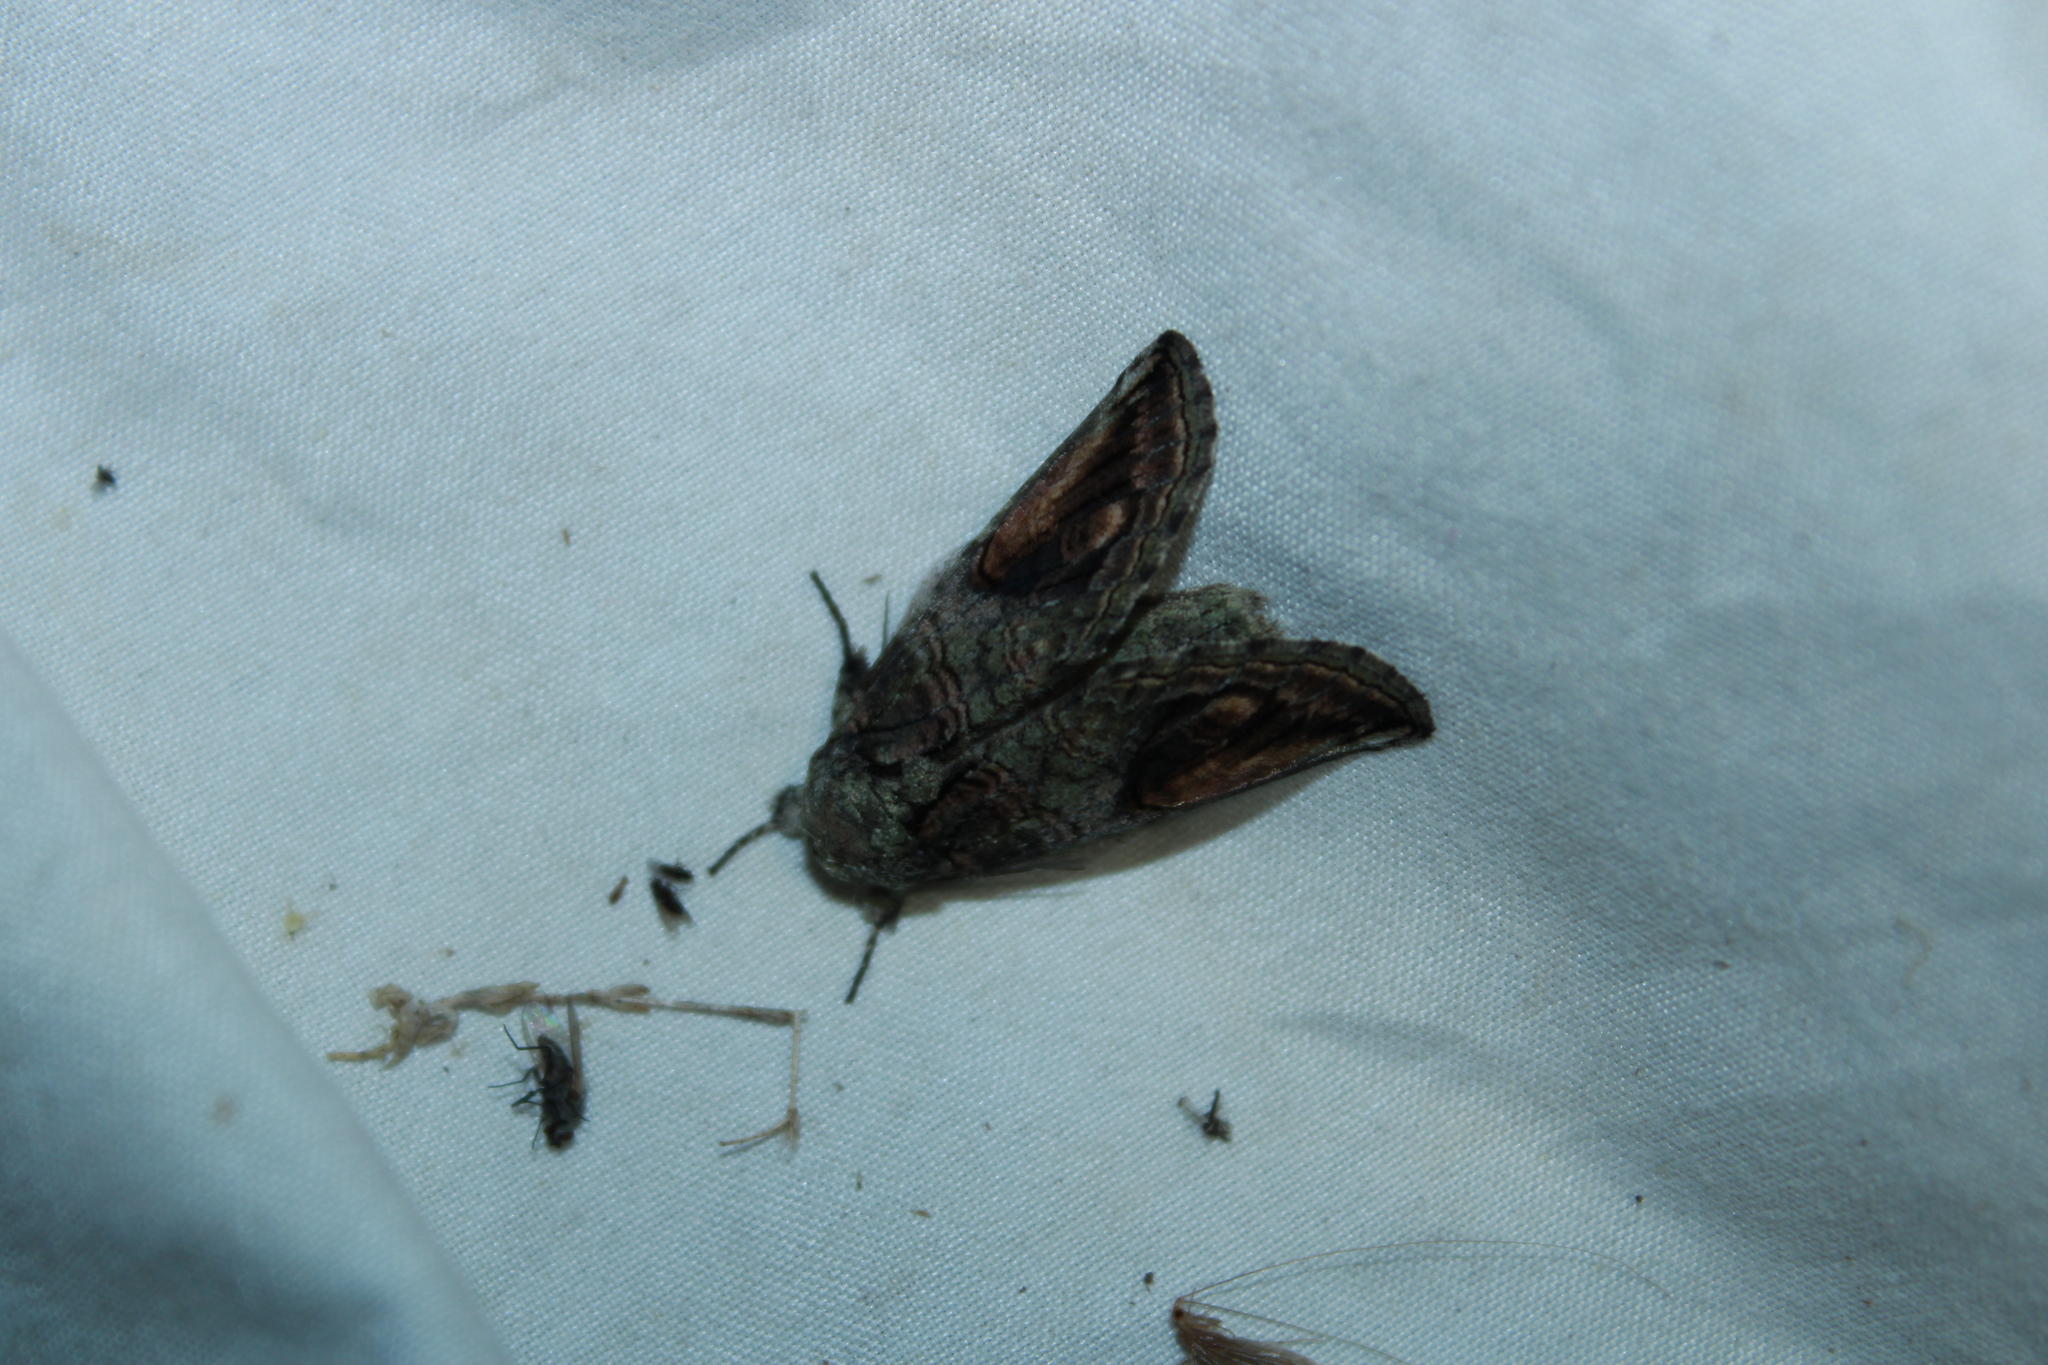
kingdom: Animalia
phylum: Arthropoda
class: Insecta
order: Lepidoptera
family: Notodontidae
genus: Heterocampa
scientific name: Heterocampa obliqua
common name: Oblique heterocampa
